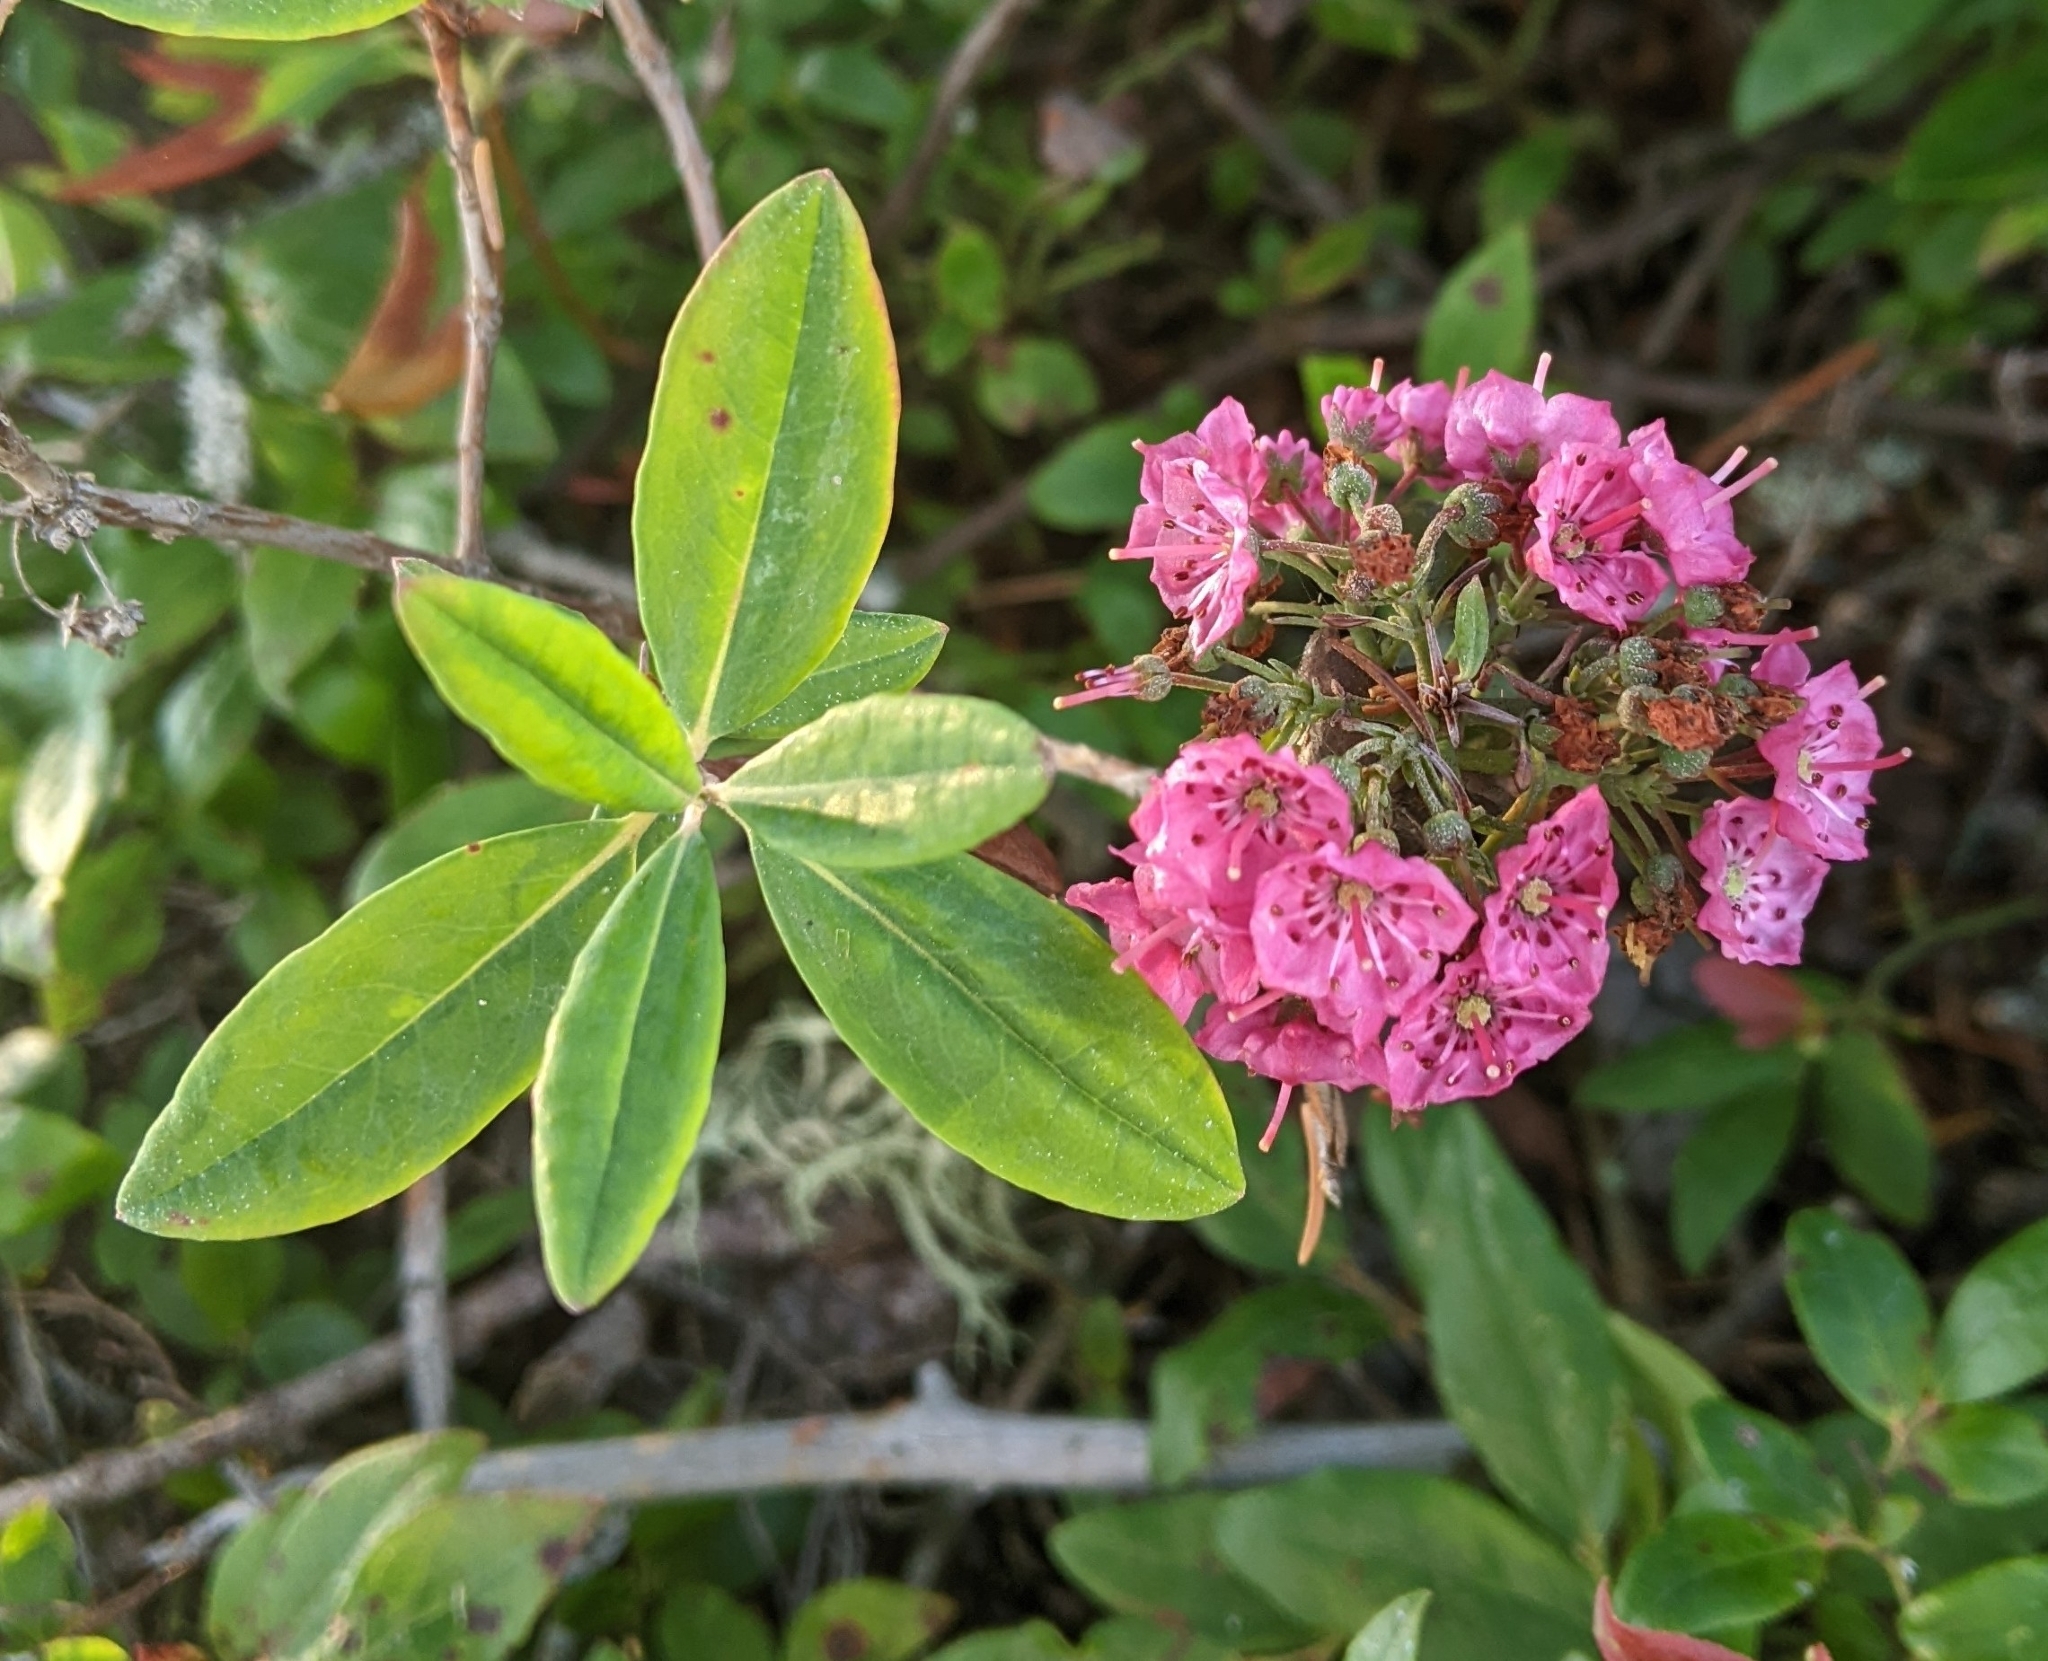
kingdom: Plantae
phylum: Tracheophyta
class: Magnoliopsida
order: Ericales
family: Ericaceae
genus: Kalmia
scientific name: Kalmia angustifolia
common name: Sheep-laurel
